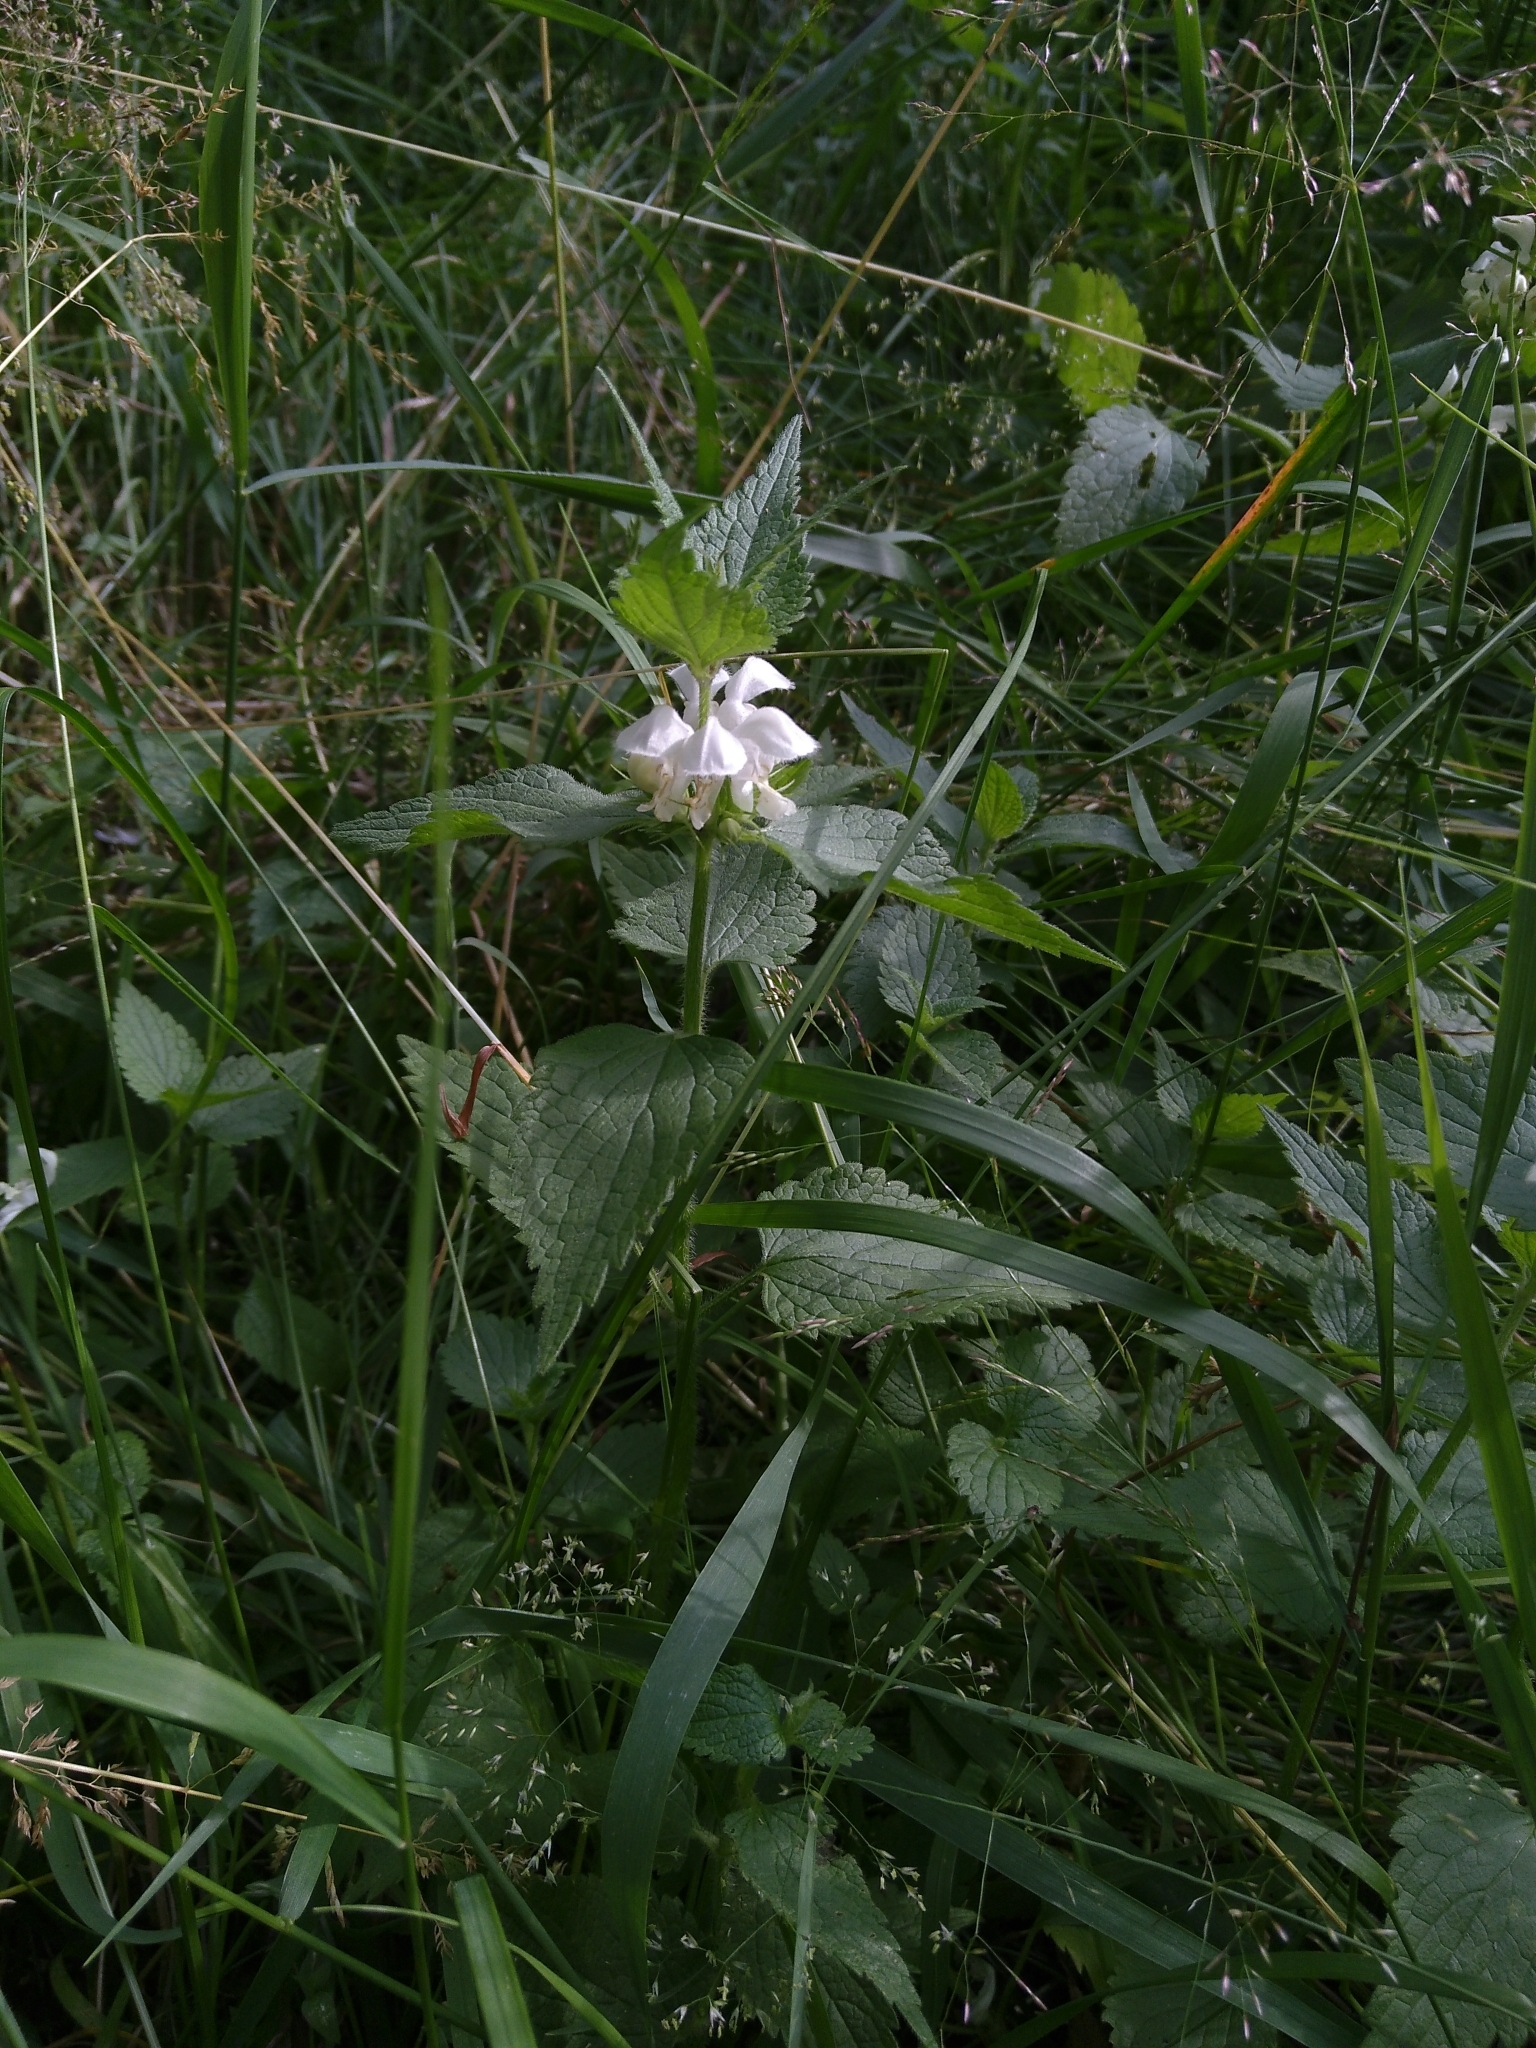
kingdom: Plantae
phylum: Tracheophyta
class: Magnoliopsida
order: Lamiales
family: Lamiaceae
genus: Lamium
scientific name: Lamium album
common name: White dead-nettle
